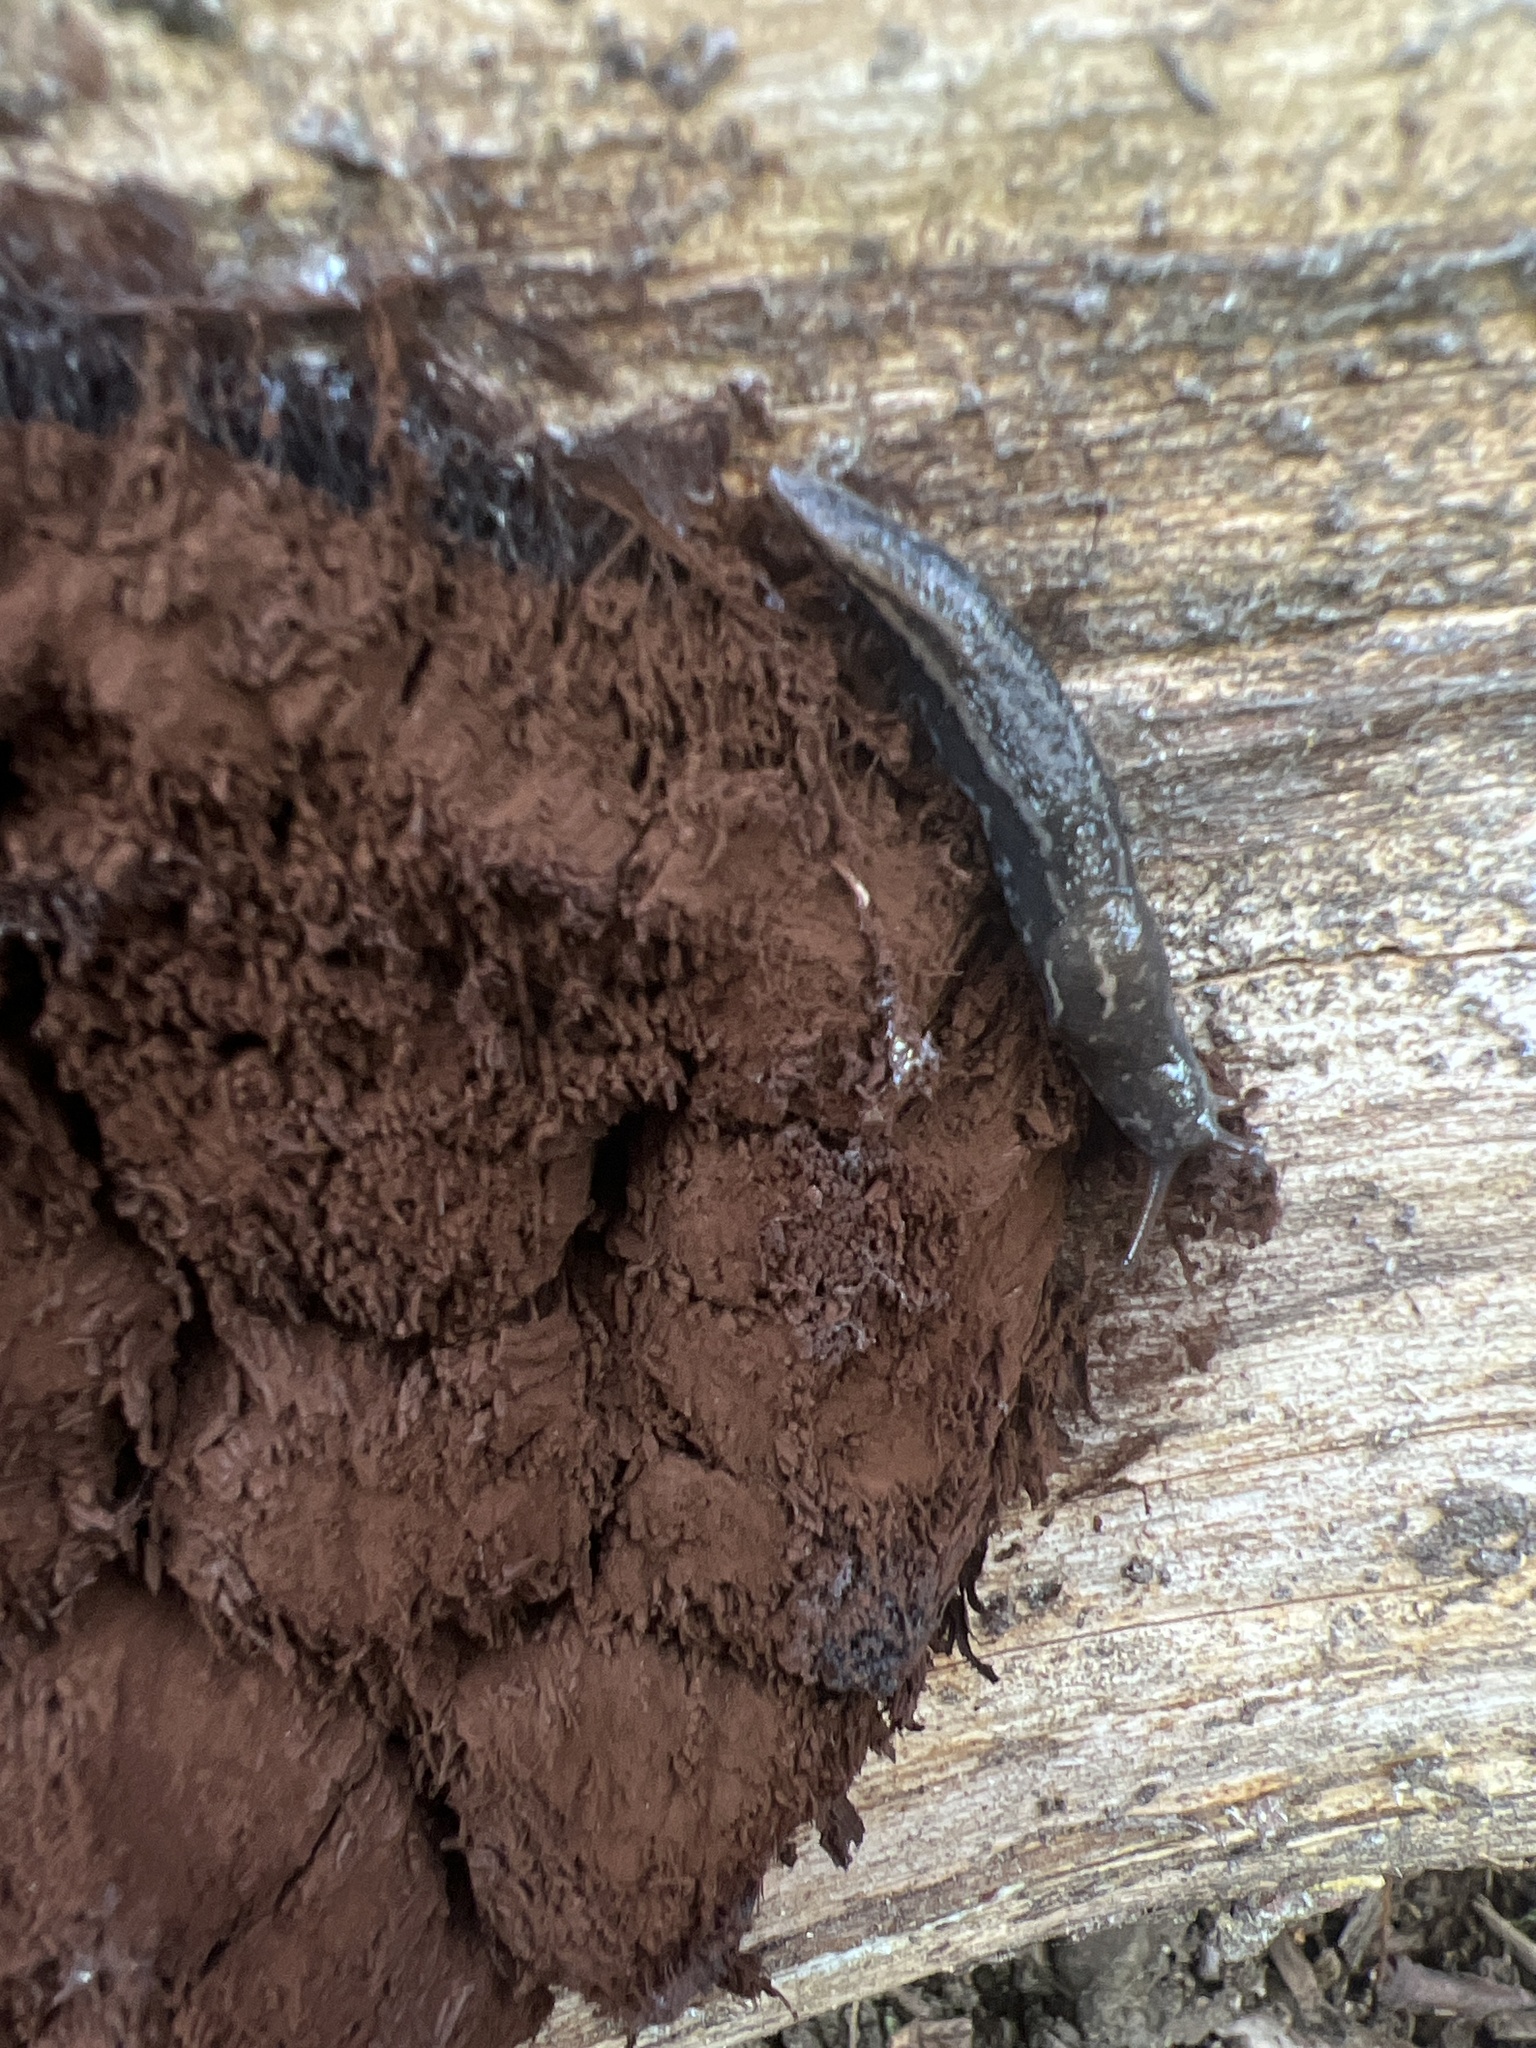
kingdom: Animalia
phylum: Mollusca
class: Gastropoda
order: Stylommatophora
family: Limacidae
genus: Limax
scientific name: Limax maximus
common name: Great grey slug
